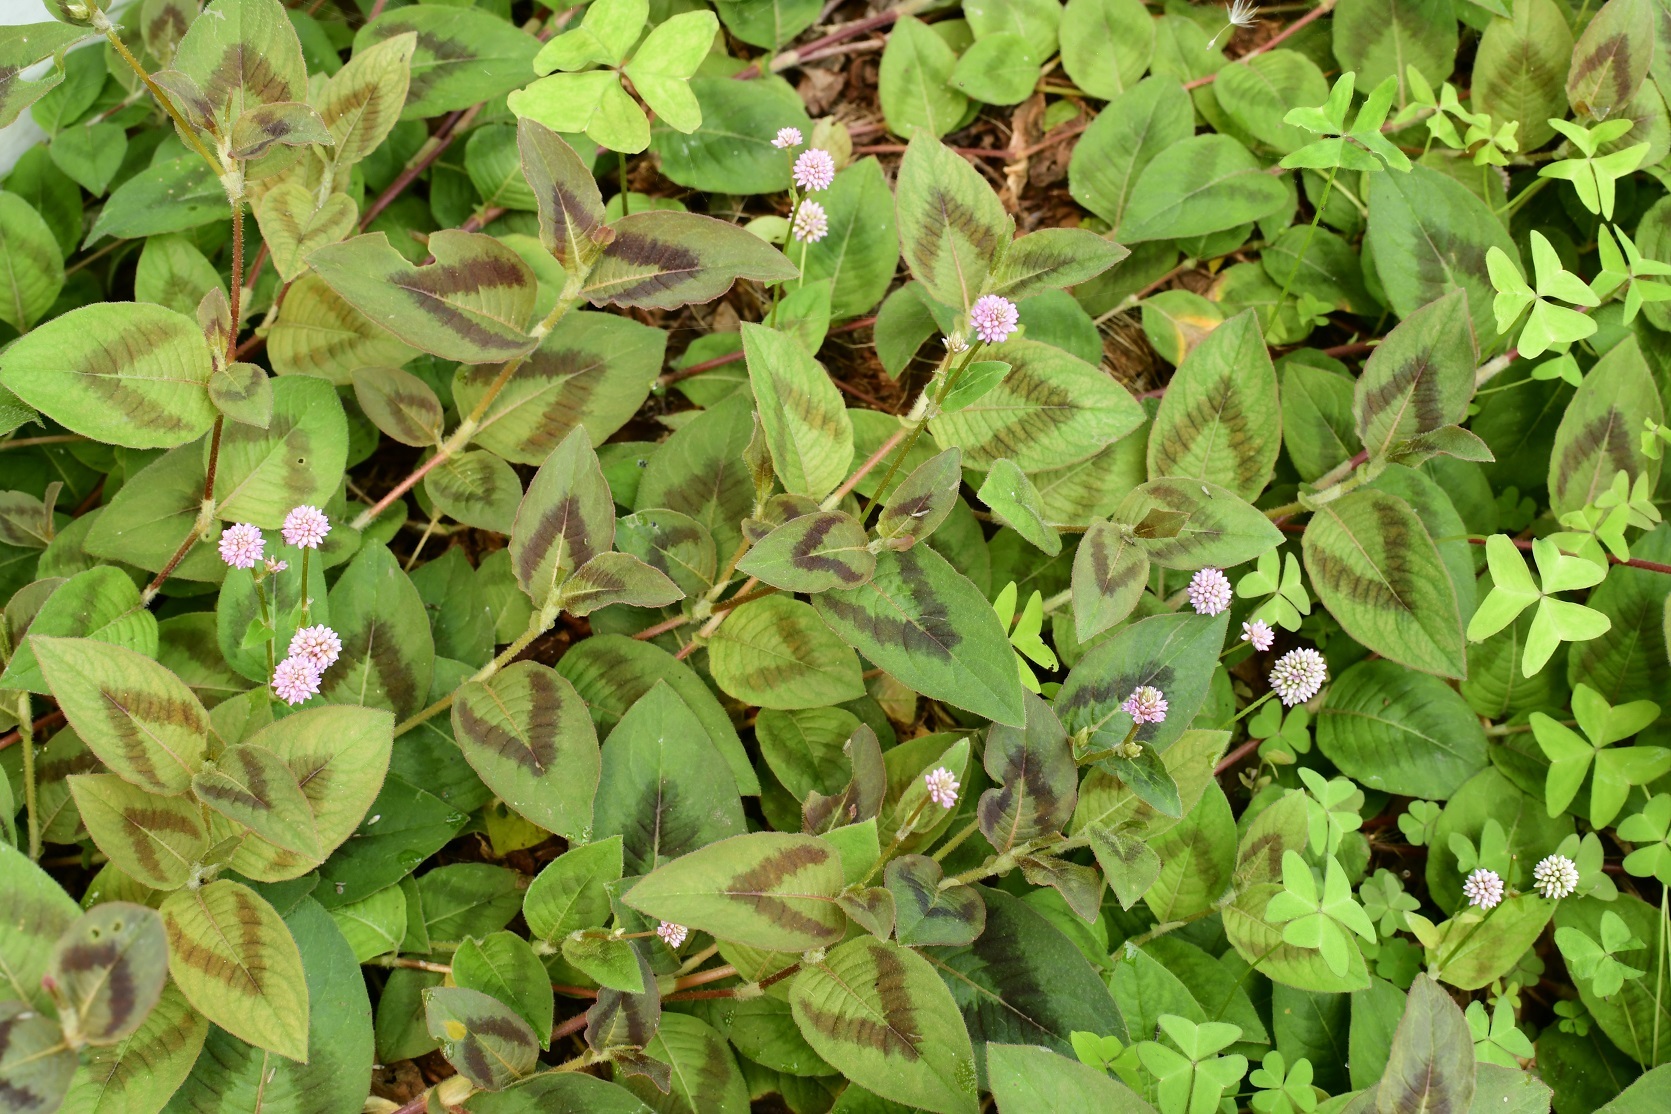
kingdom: Plantae
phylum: Tracheophyta
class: Magnoliopsida
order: Caryophyllales
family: Polygonaceae
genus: Persicaria
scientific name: Persicaria capitata
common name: Pinkhead smartweed
